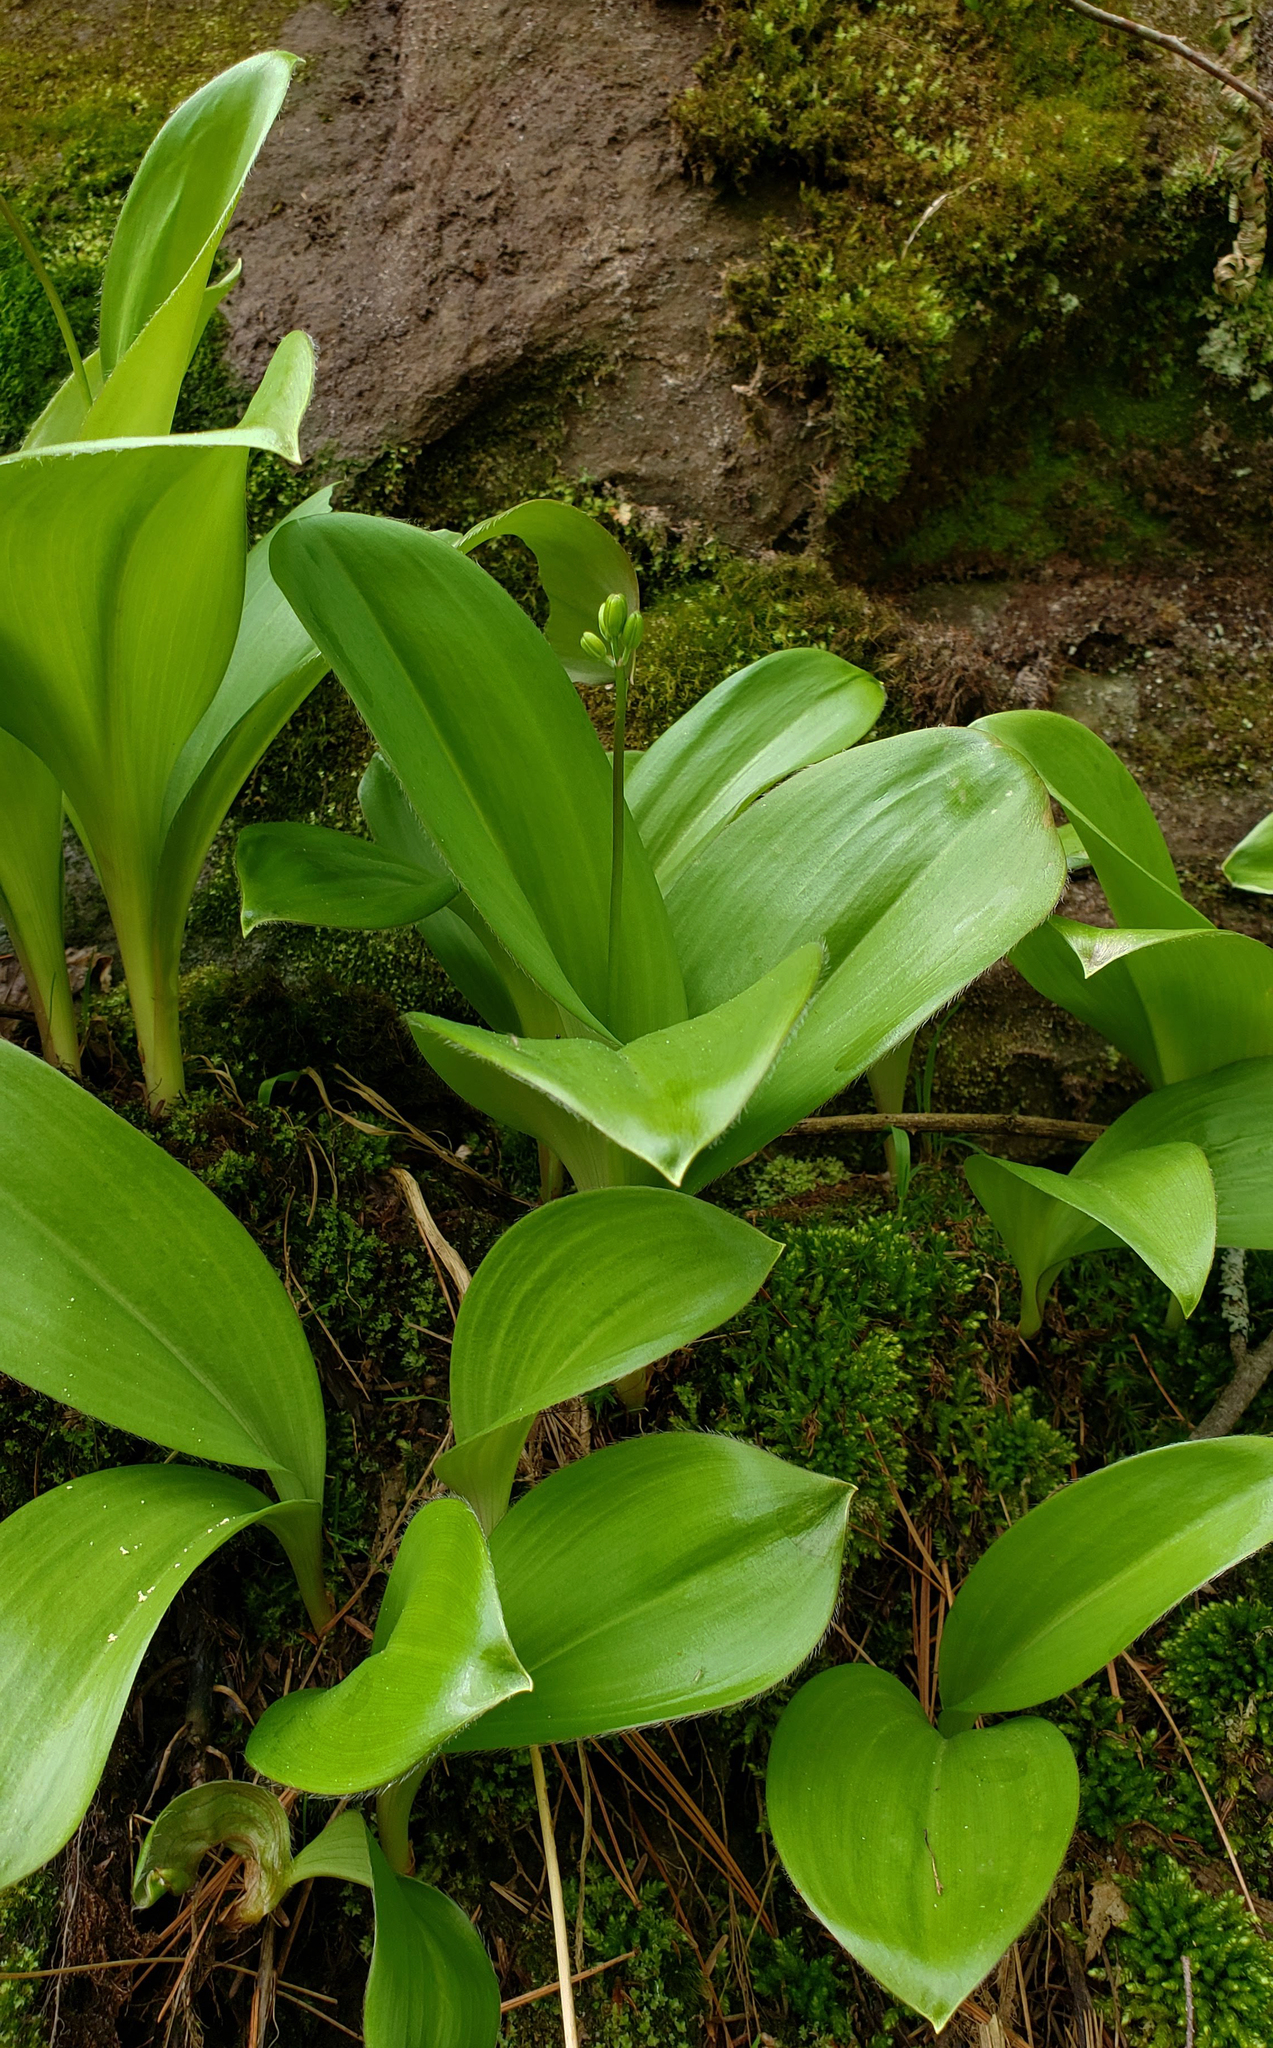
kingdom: Plantae
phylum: Tracheophyta
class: Liliopsida
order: Liliales
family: Liliaceae
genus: Clintonia
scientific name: Clintonia borealis
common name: Yellow clintonia
